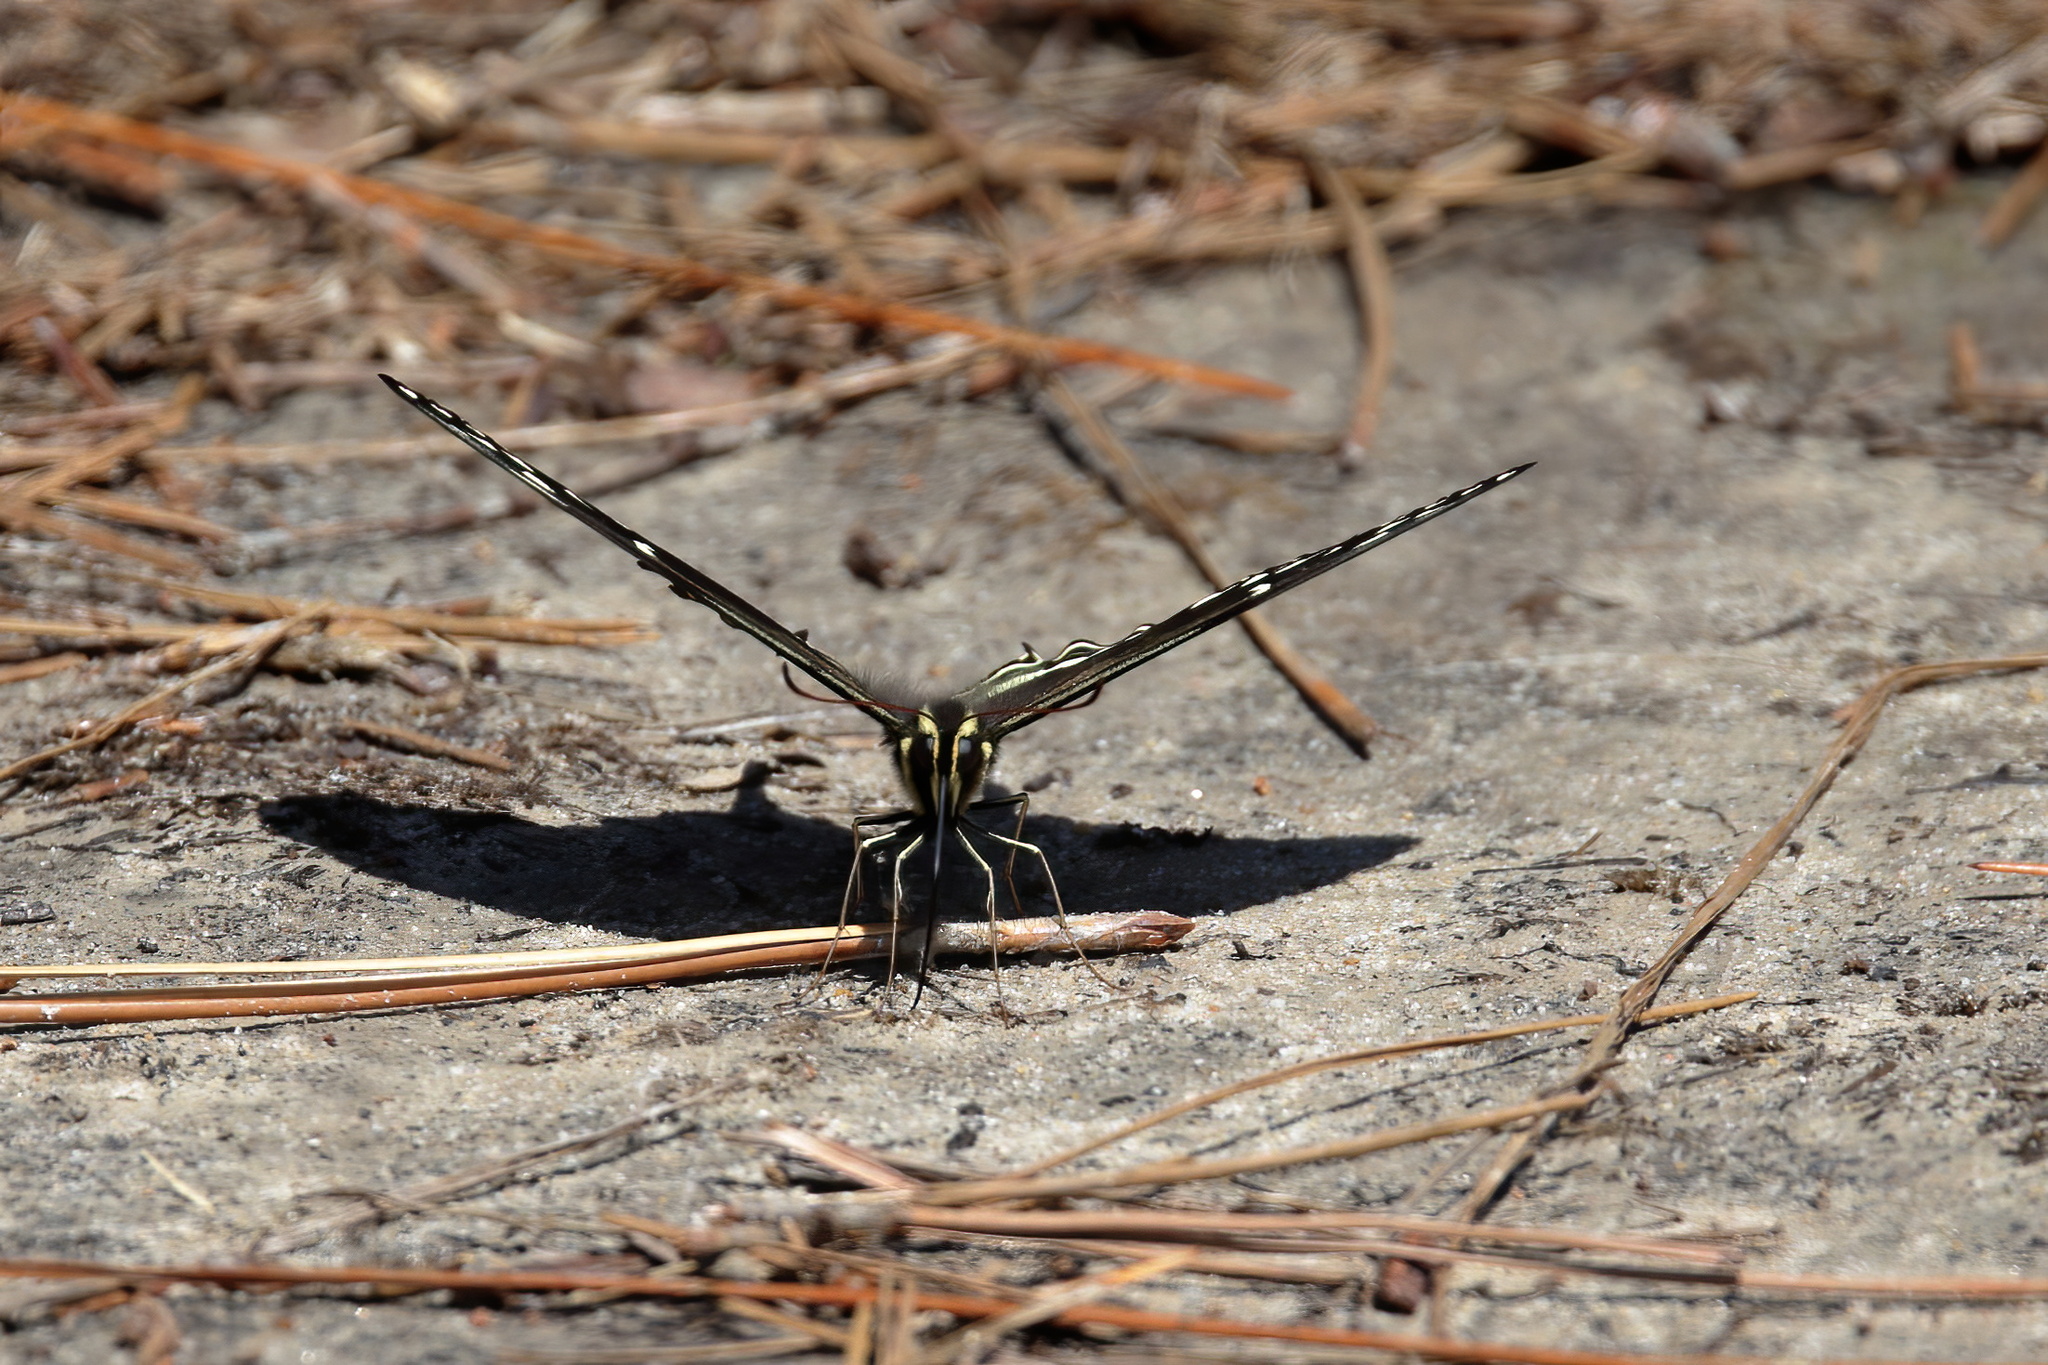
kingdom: Animalia
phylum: Arthropoda
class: Insecta
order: Lepidoptera
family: Papilionidae
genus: Papilio
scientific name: Papilio palamedes
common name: Palamedes swallowtail
